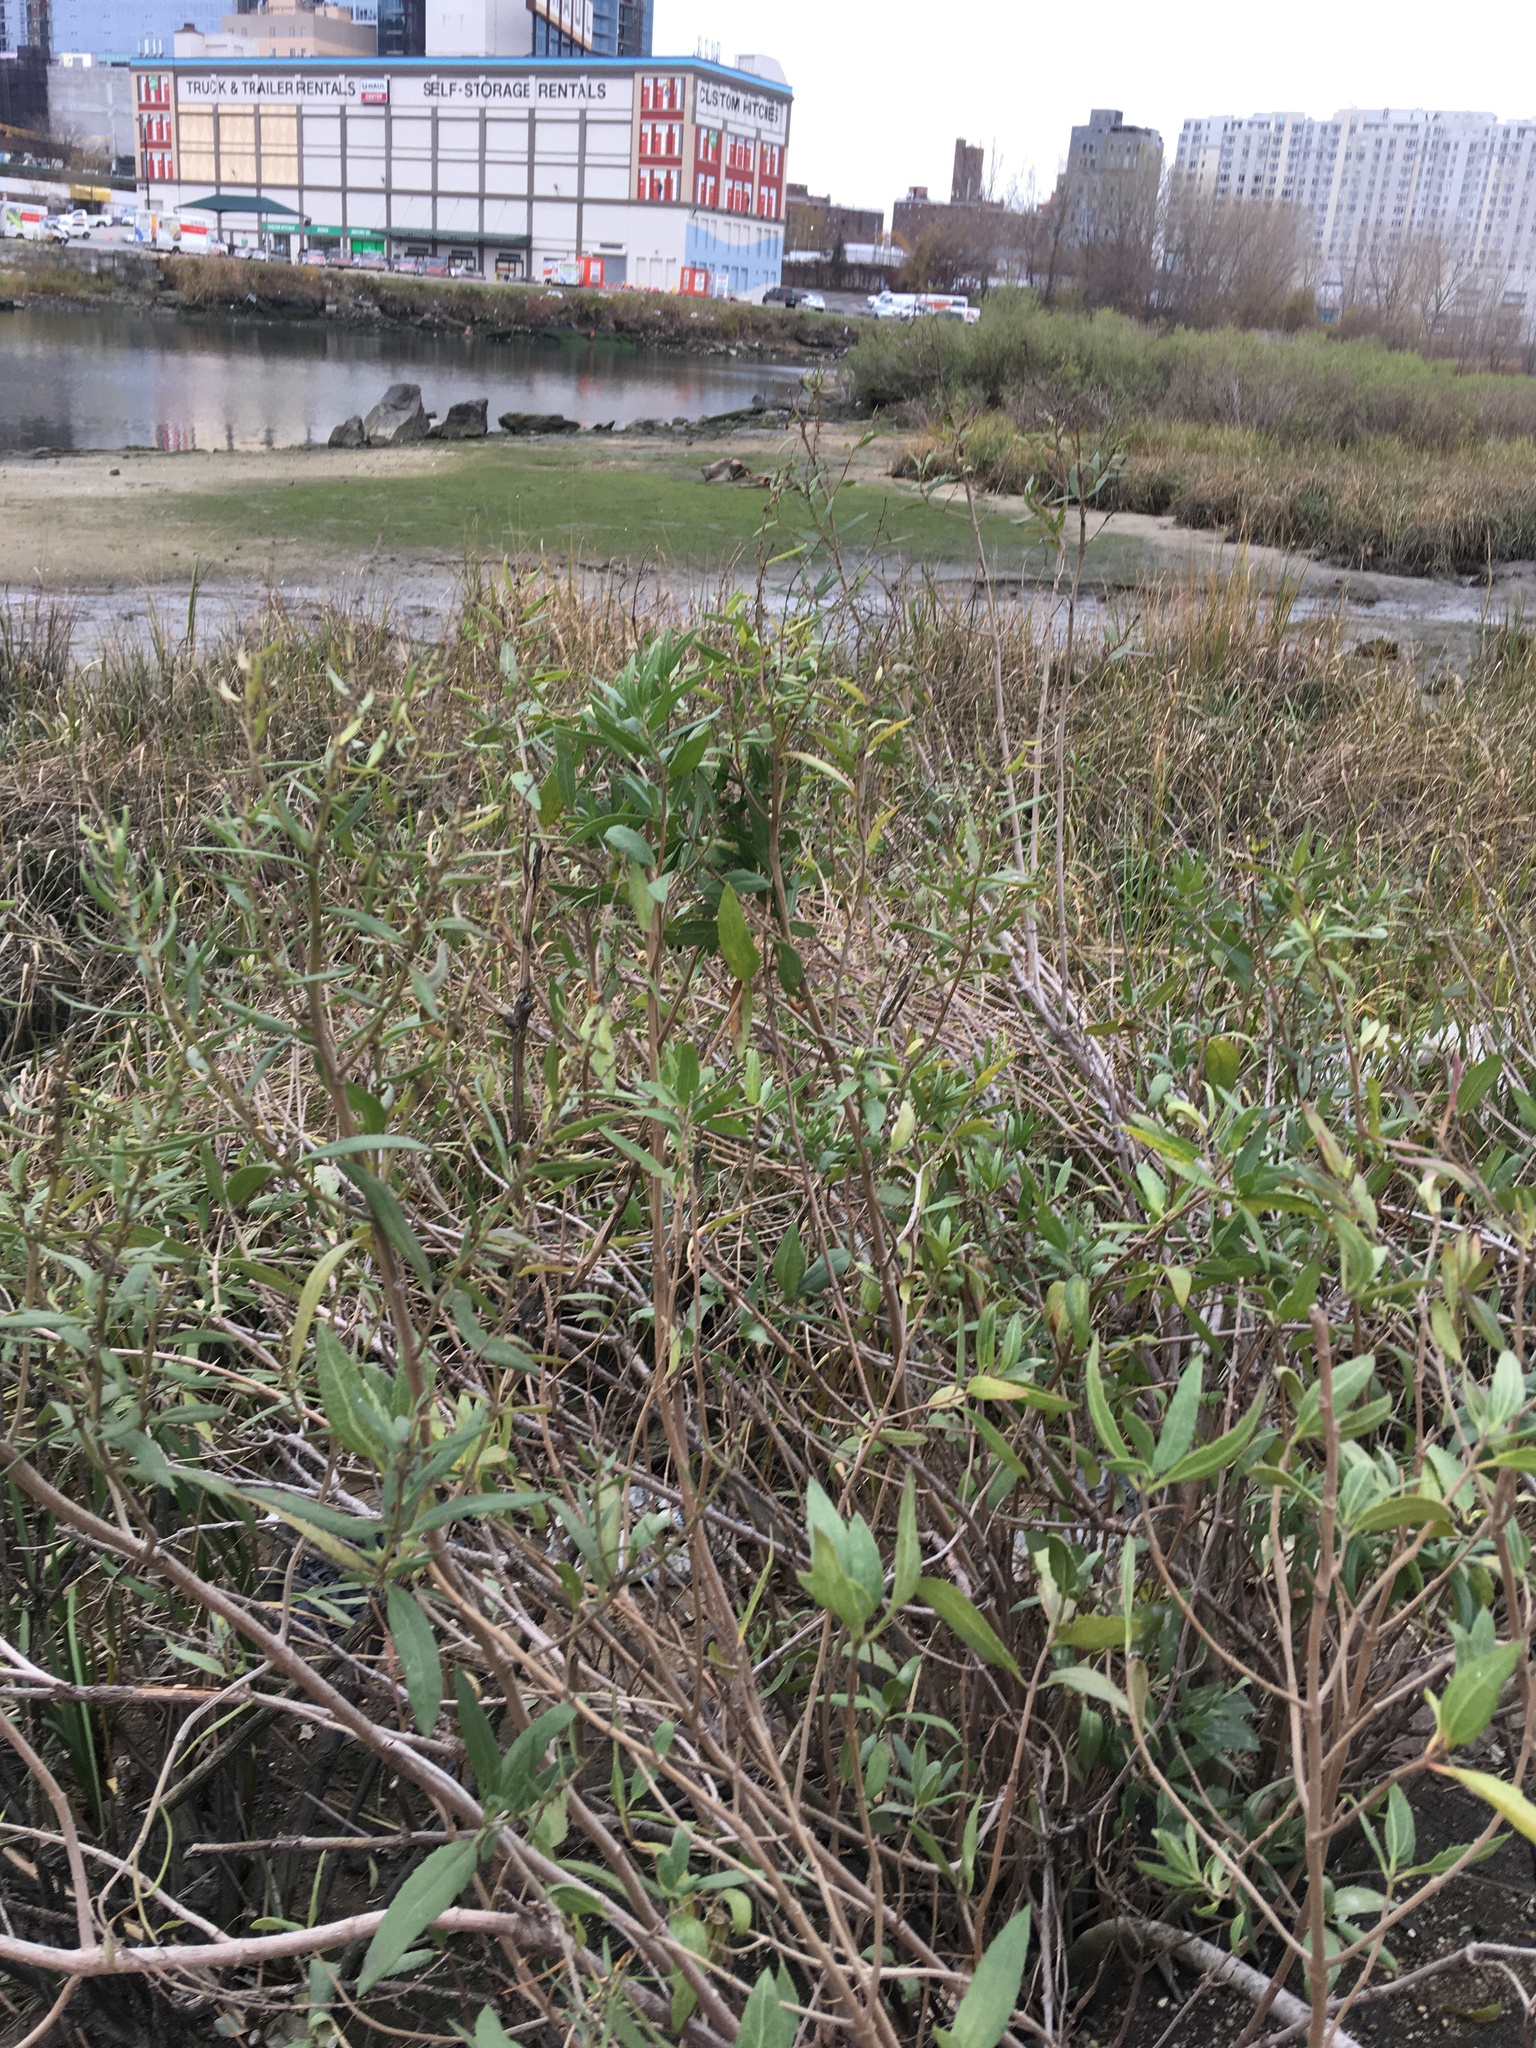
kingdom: Plantae
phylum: Tracheophyta
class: Magnoliopsida
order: Asterales
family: Asteraceae
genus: Iva
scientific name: Iva frutescens
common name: Big-leaved marsh-elder
